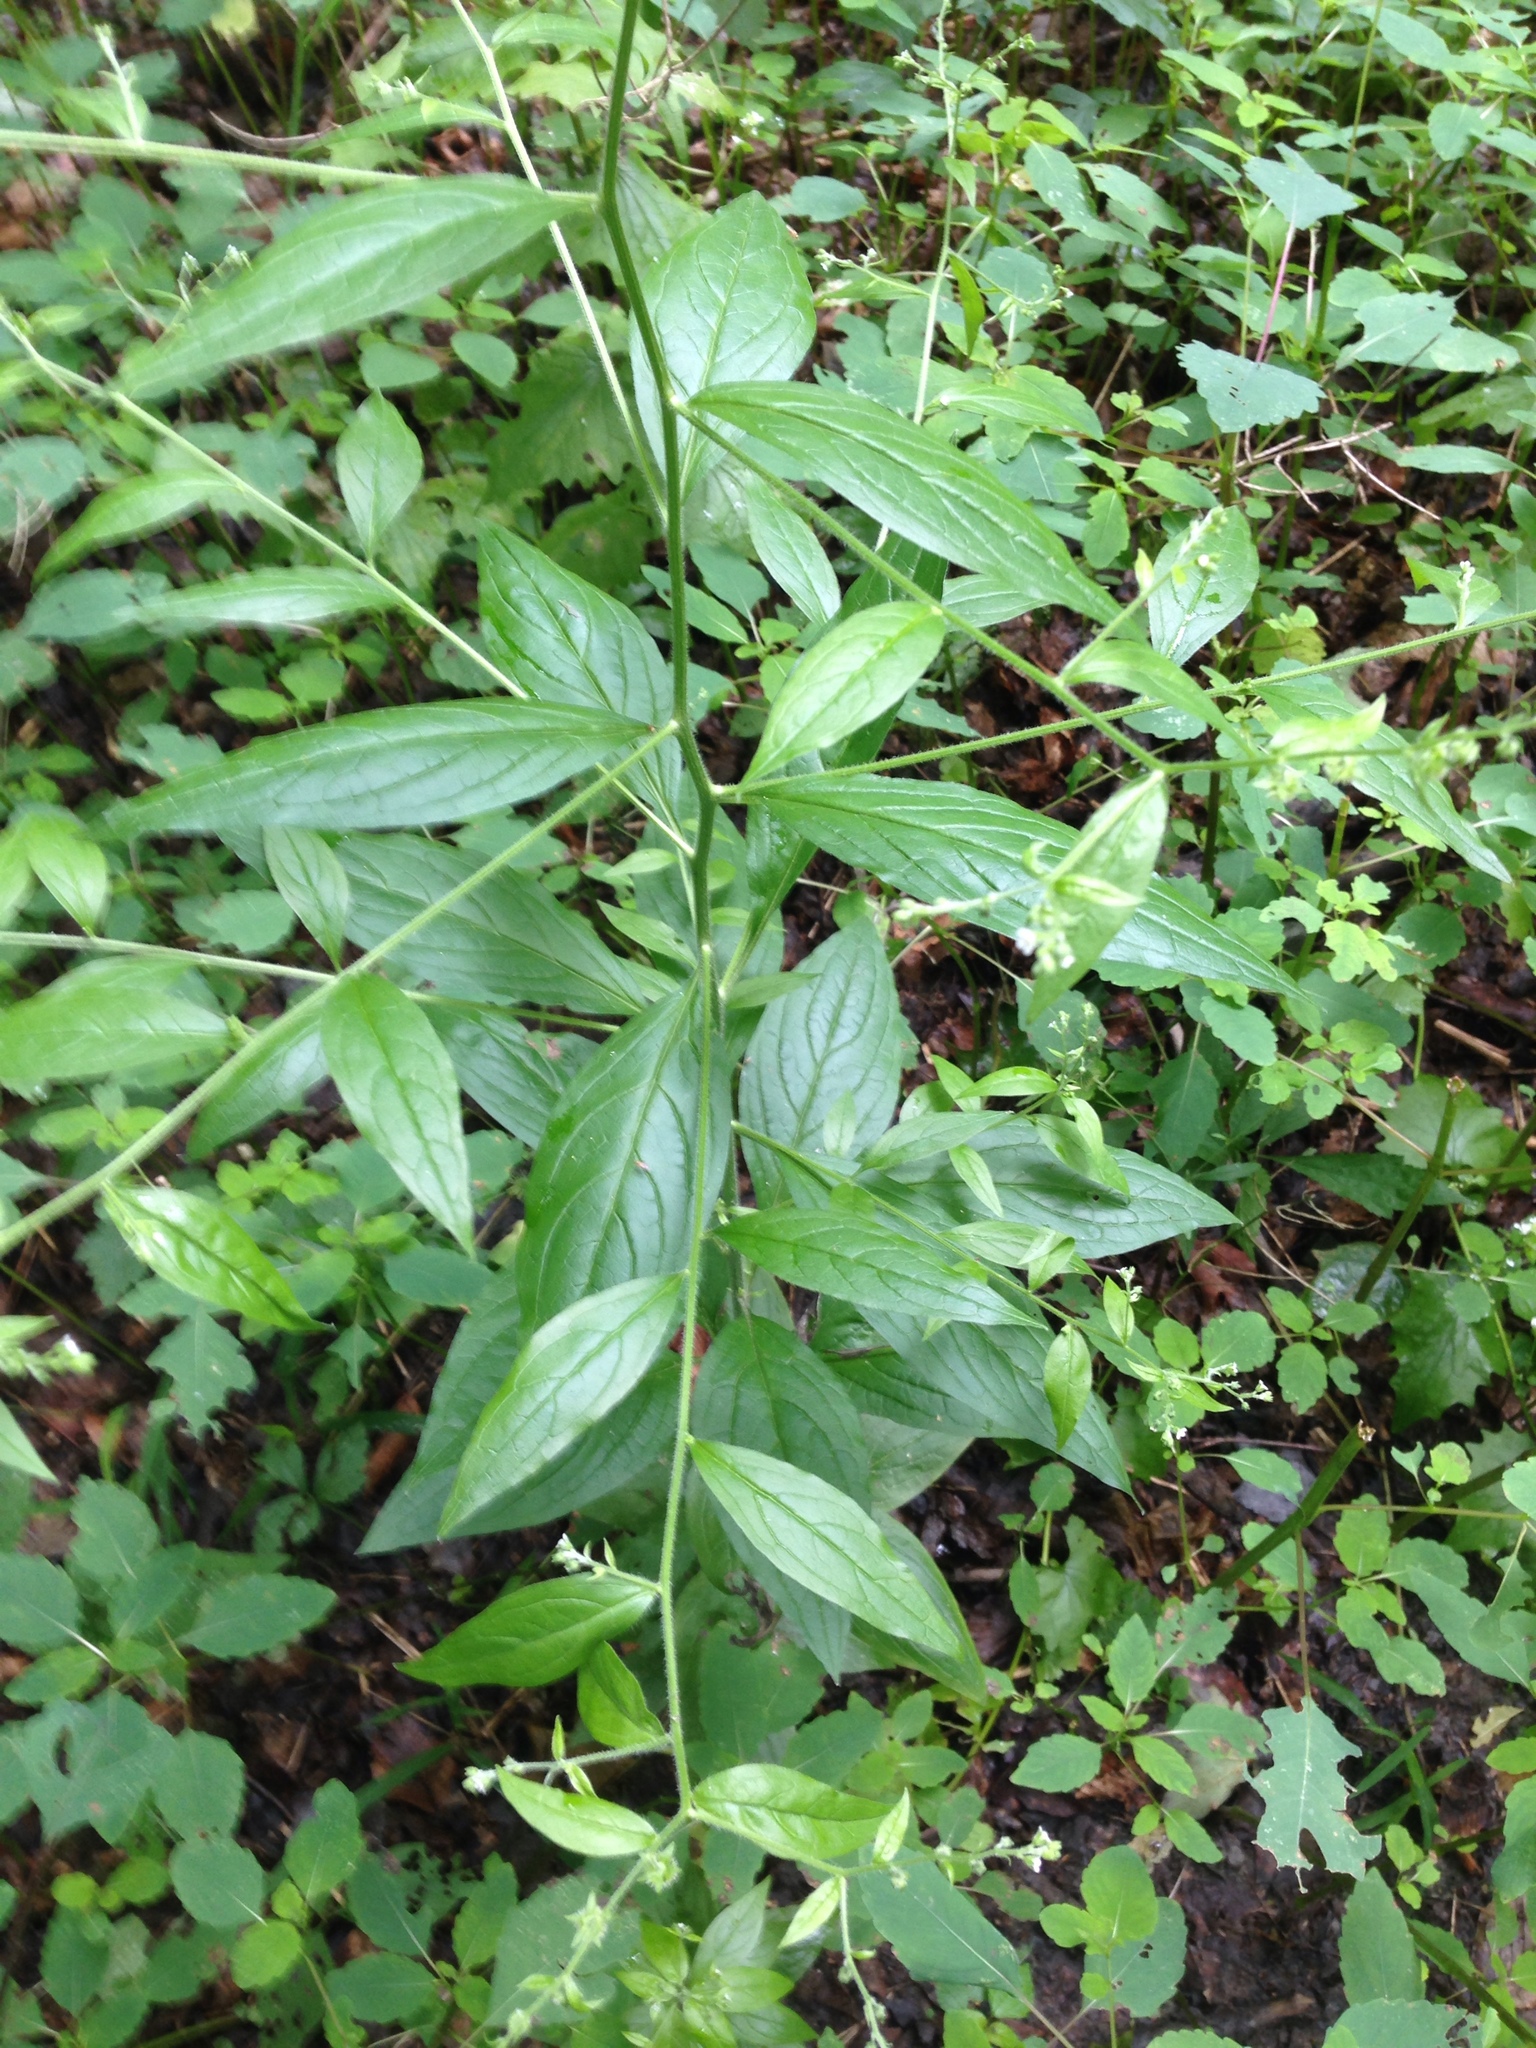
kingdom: Plantae
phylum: Tracheophyta
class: Magnoliopsida
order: Boraginales
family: Boraginaceae
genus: Hackelia
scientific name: Hackelia virginiana
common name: Beggar's-lice
